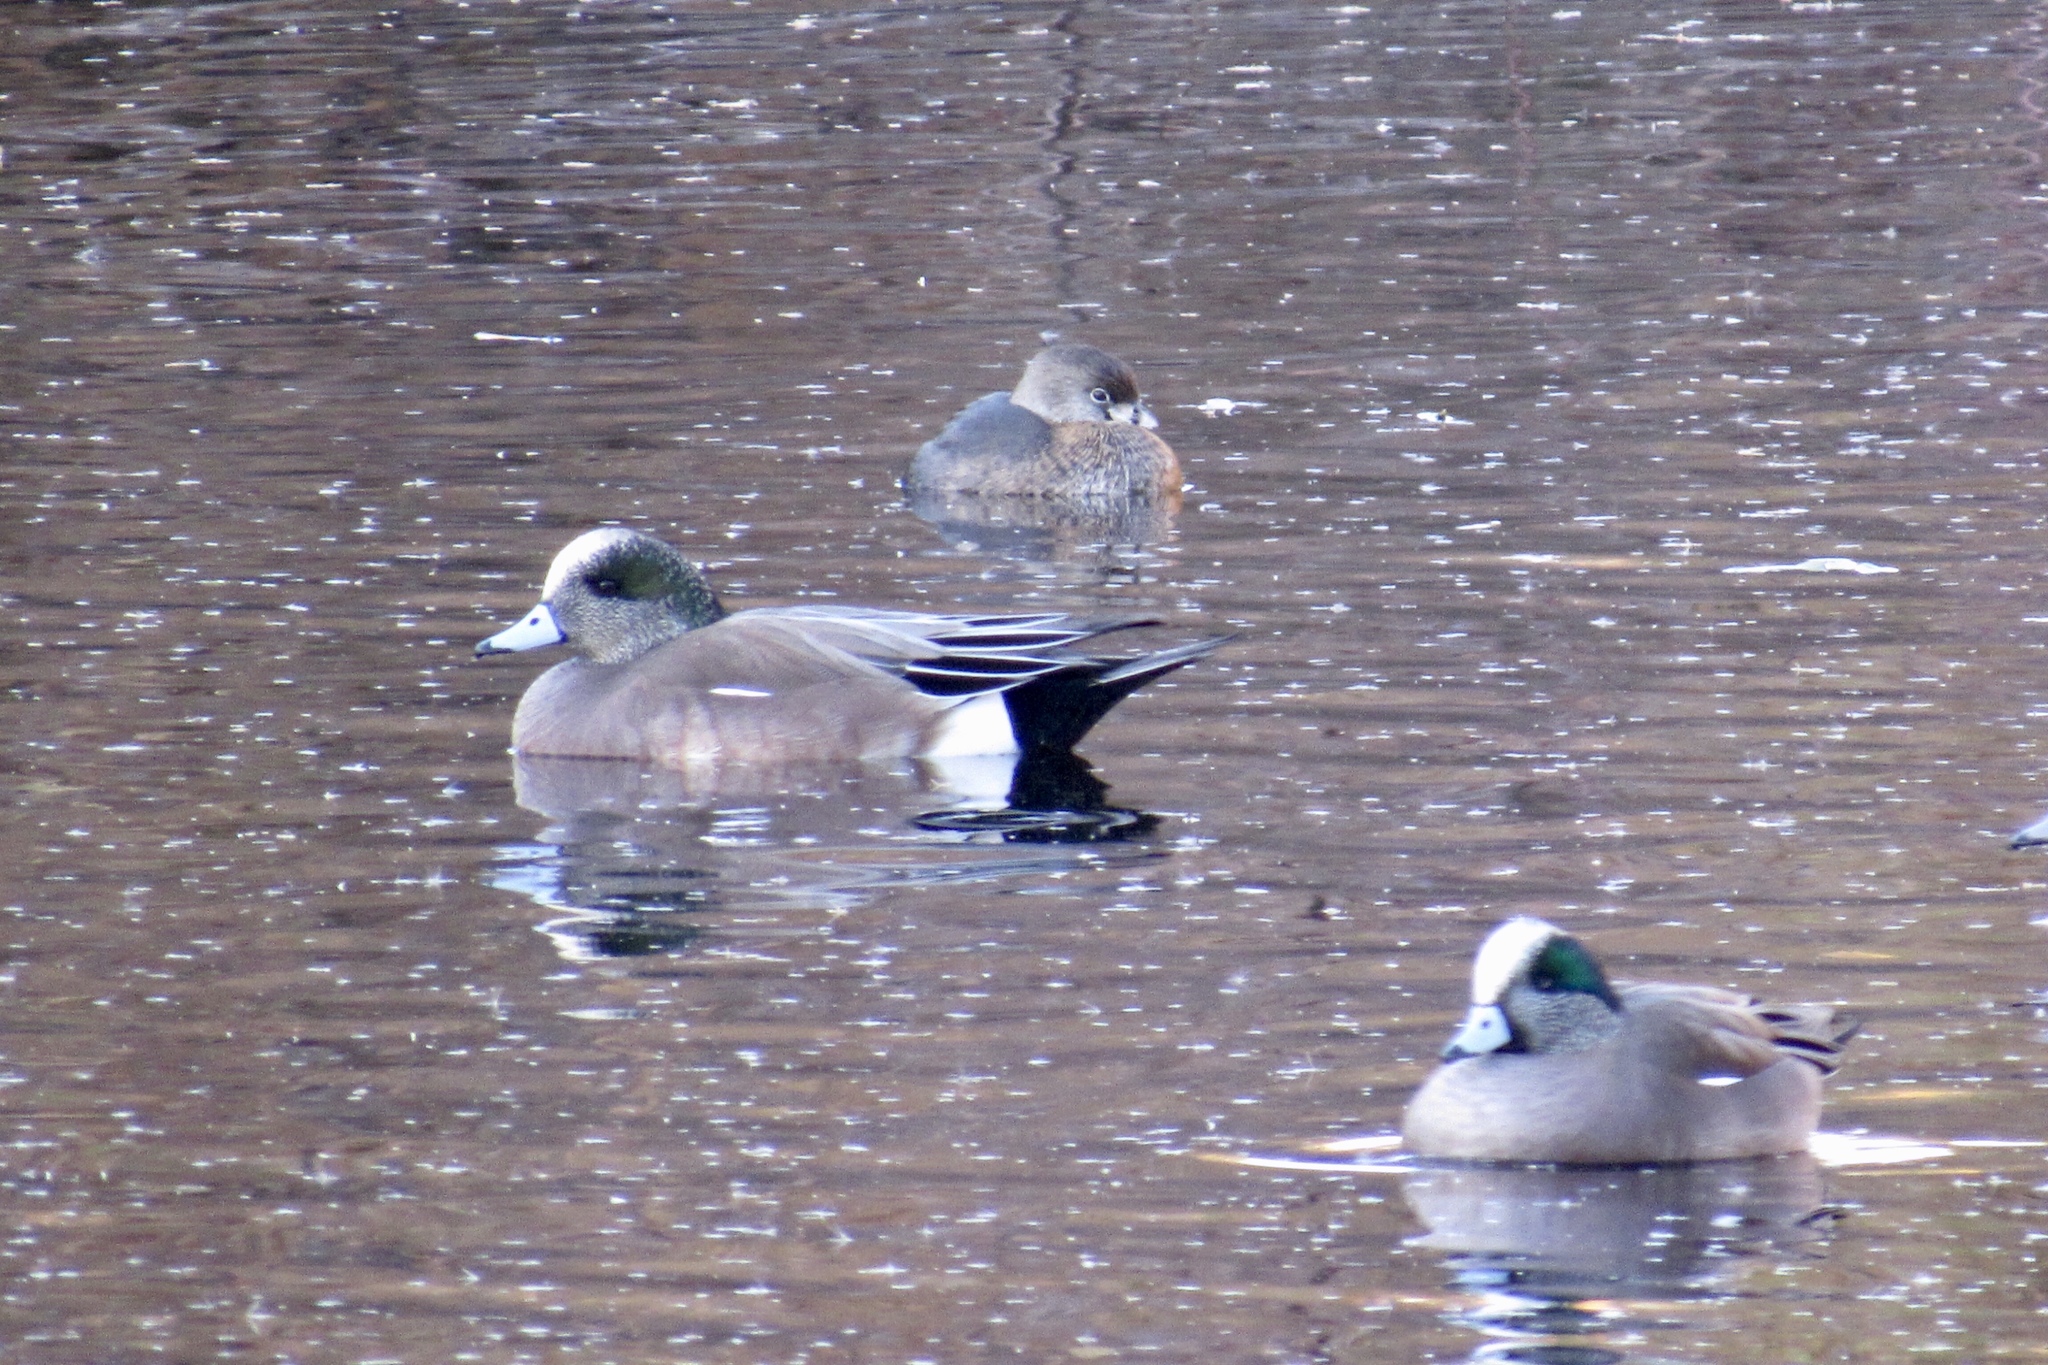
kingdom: Animalia
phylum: Chordata
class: Aves
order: Anseriformes
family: Anatidae
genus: Mareca
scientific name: Mareca americana
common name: American wigeon
